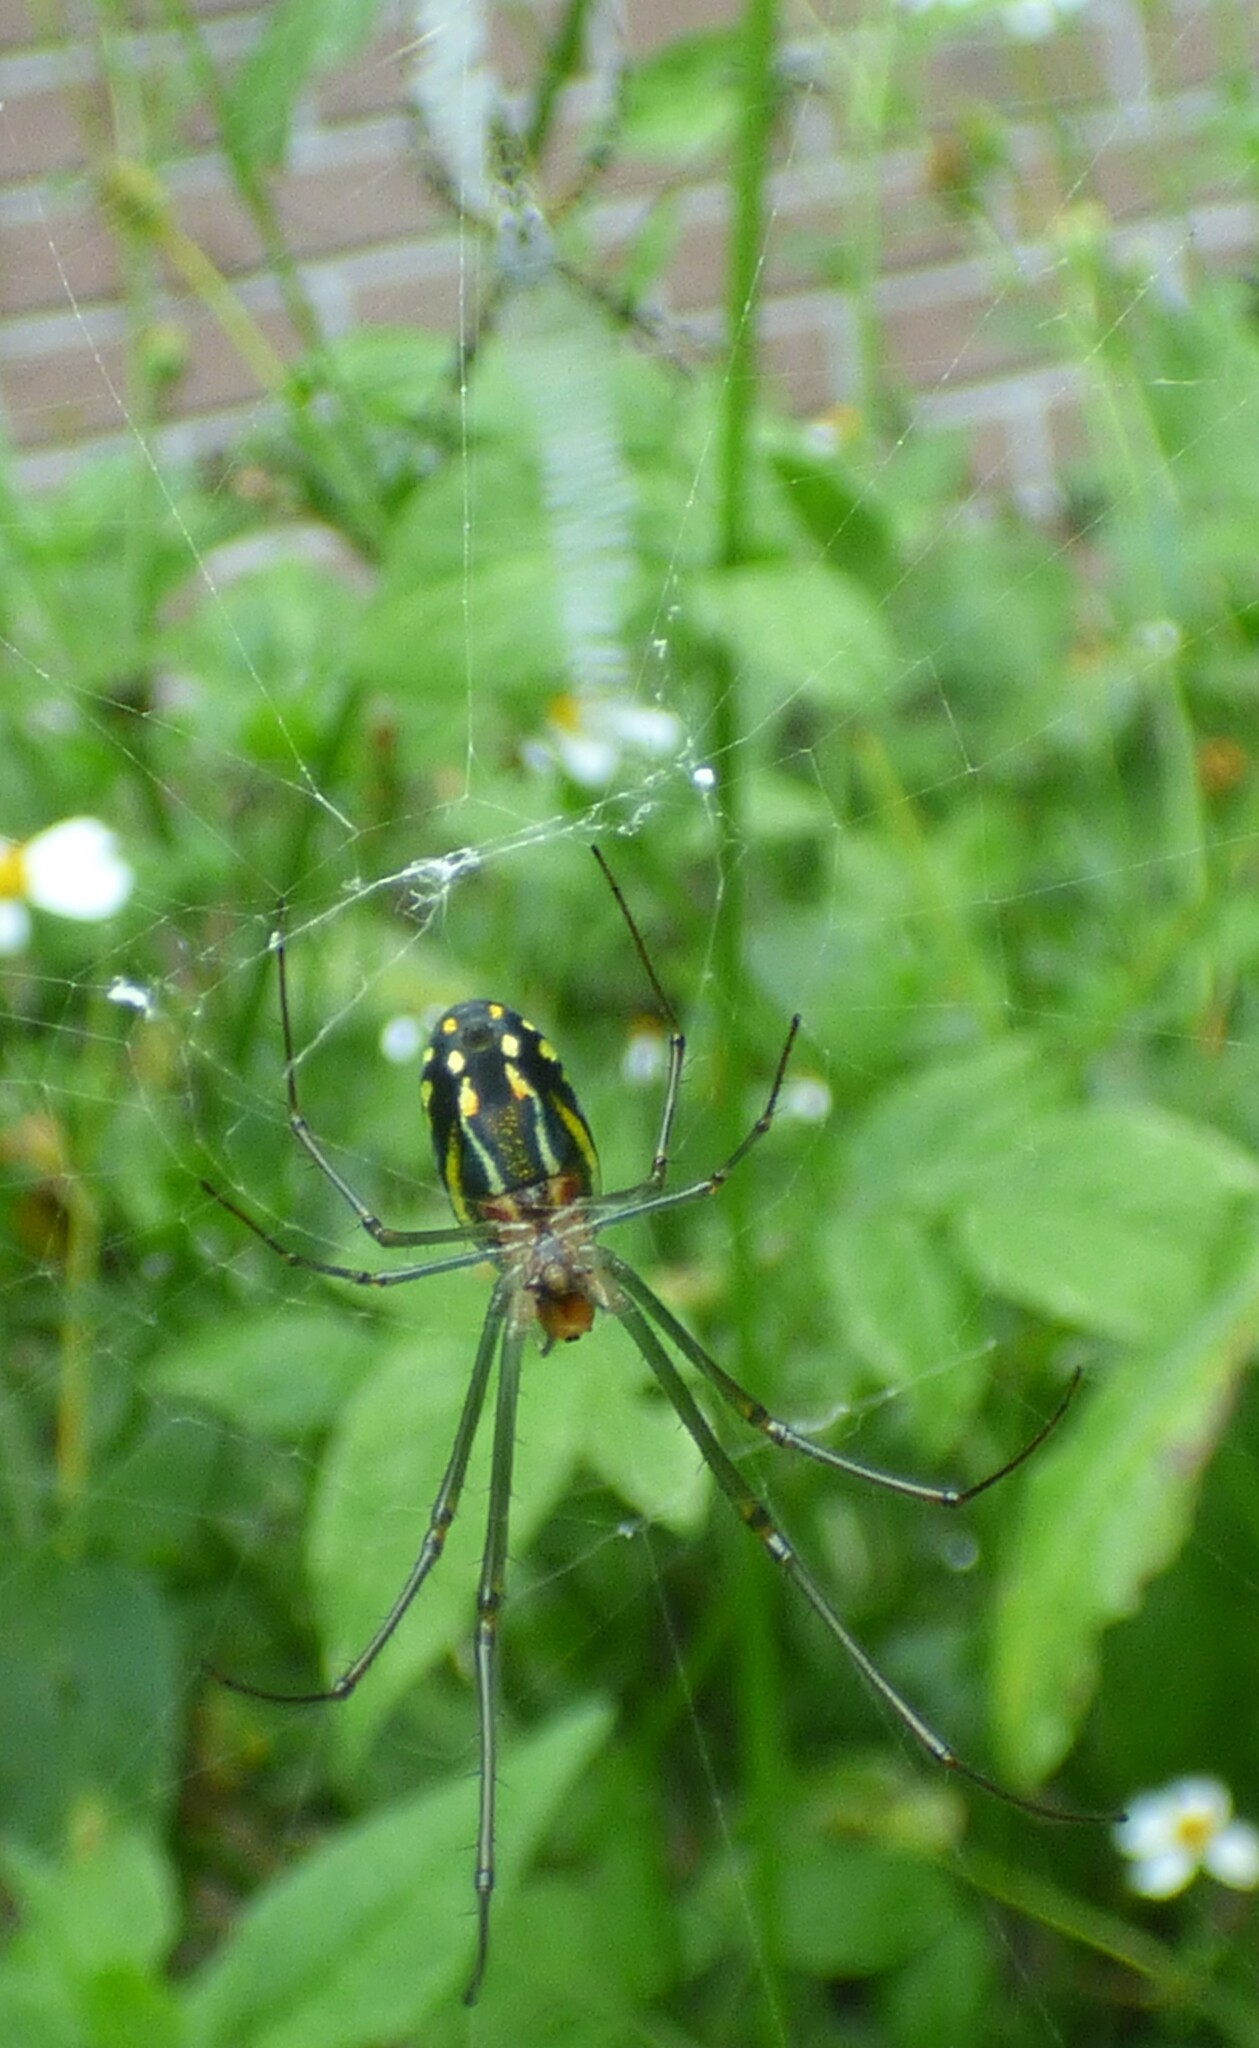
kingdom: Animalia
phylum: Arthropoda
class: Arachnida
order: Araneae
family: Tetragnathidae
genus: Leucauge
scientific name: Leucauge argyra
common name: Longjawed orb weavers
